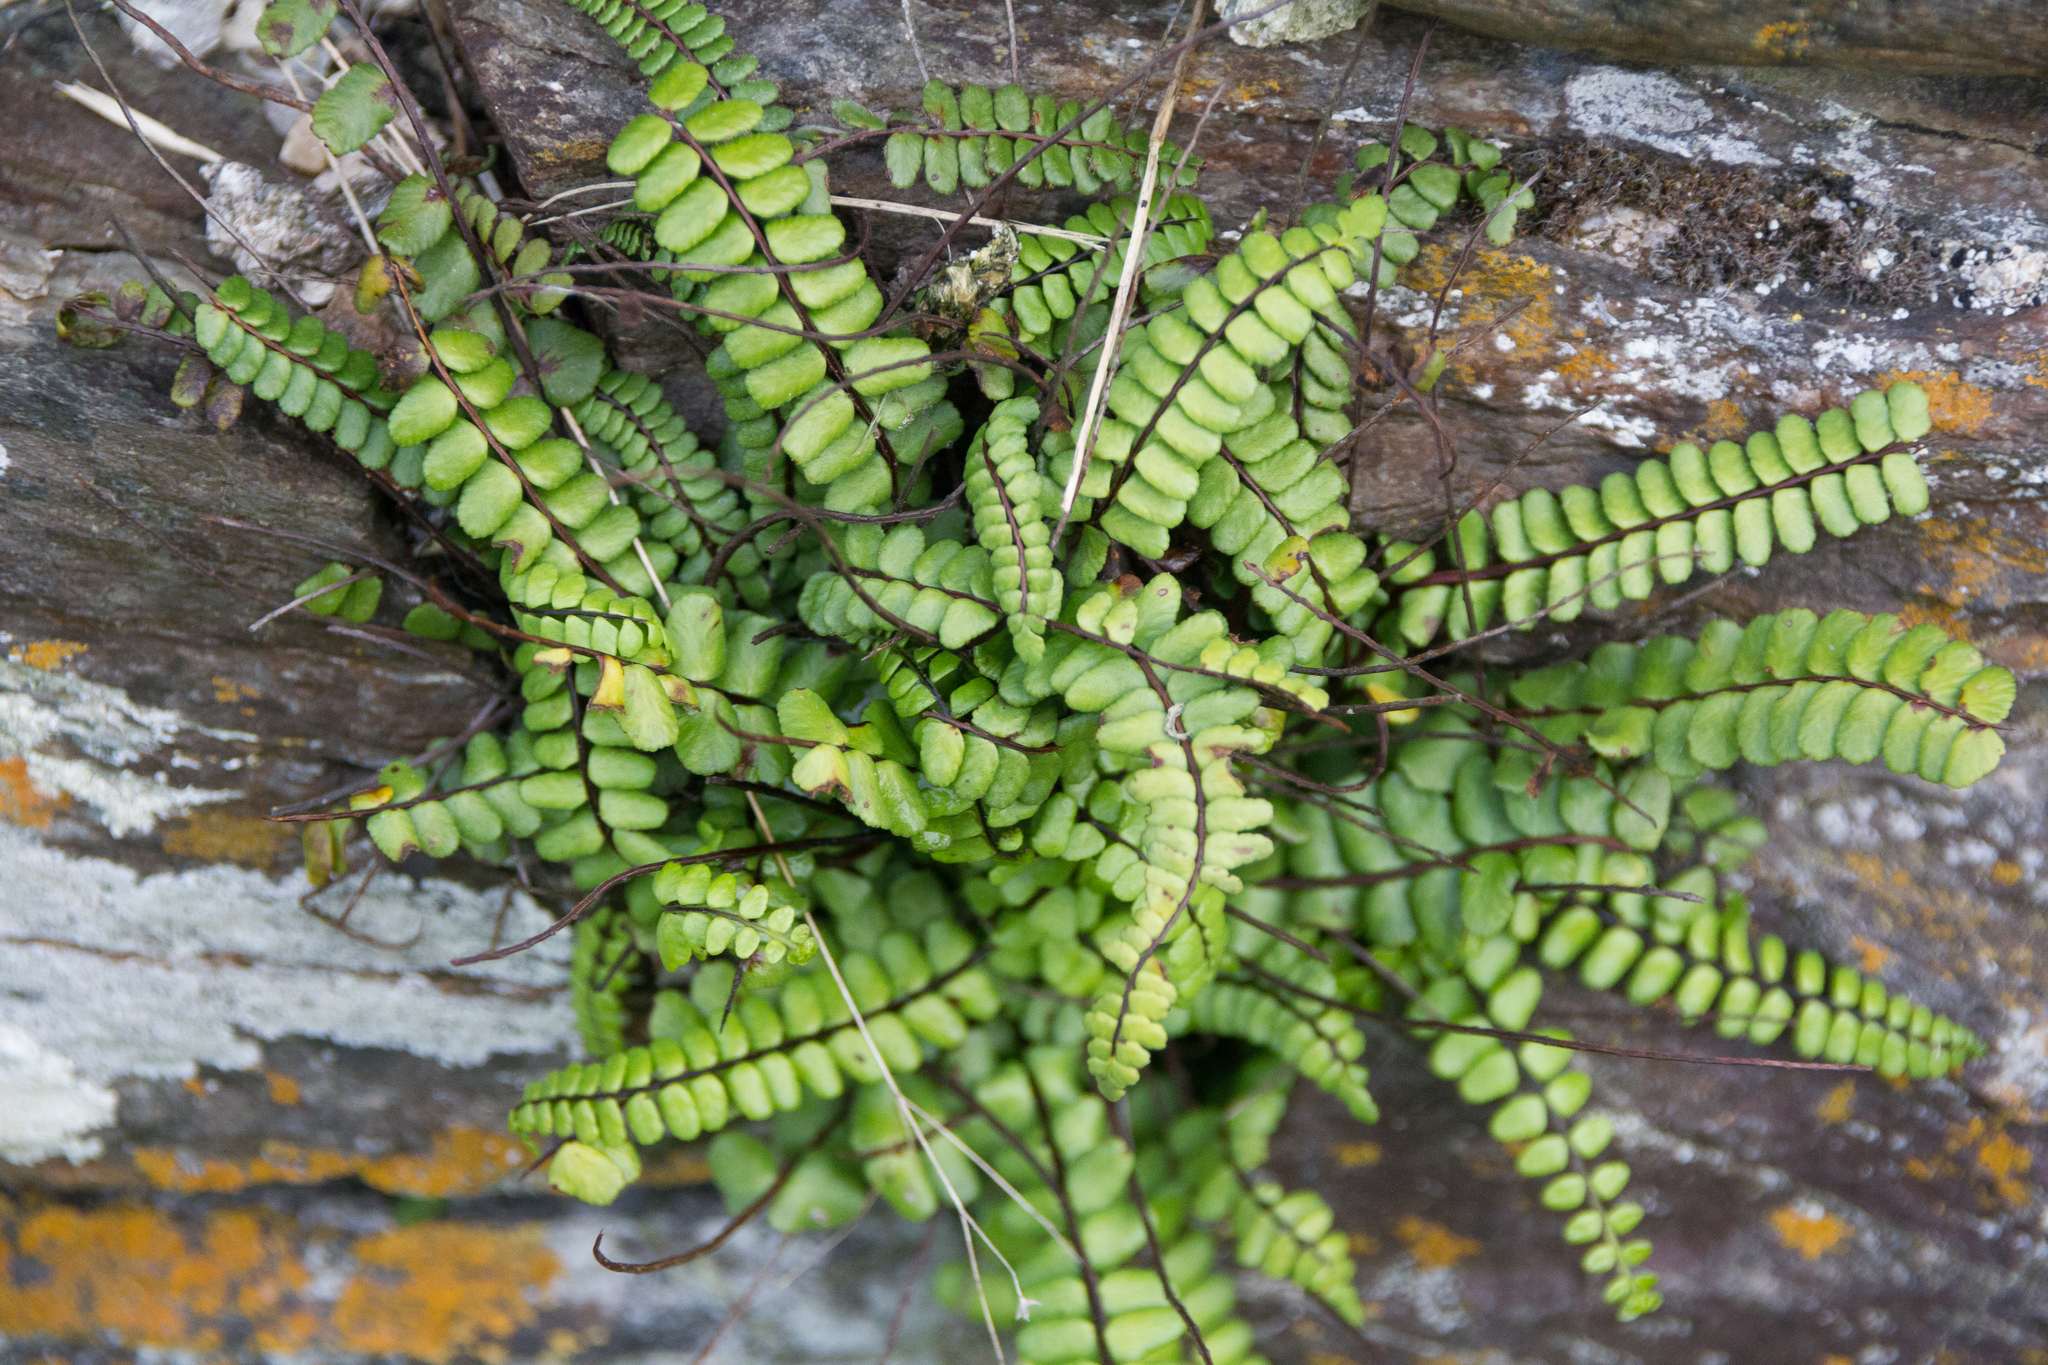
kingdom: Plantae
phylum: Tracheophyta
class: Polypodiopsida
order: Polypodiales
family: Aspleniaceae
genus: Asplenium
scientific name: Asplenium trichomanes
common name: Maidenhair spleenwort
